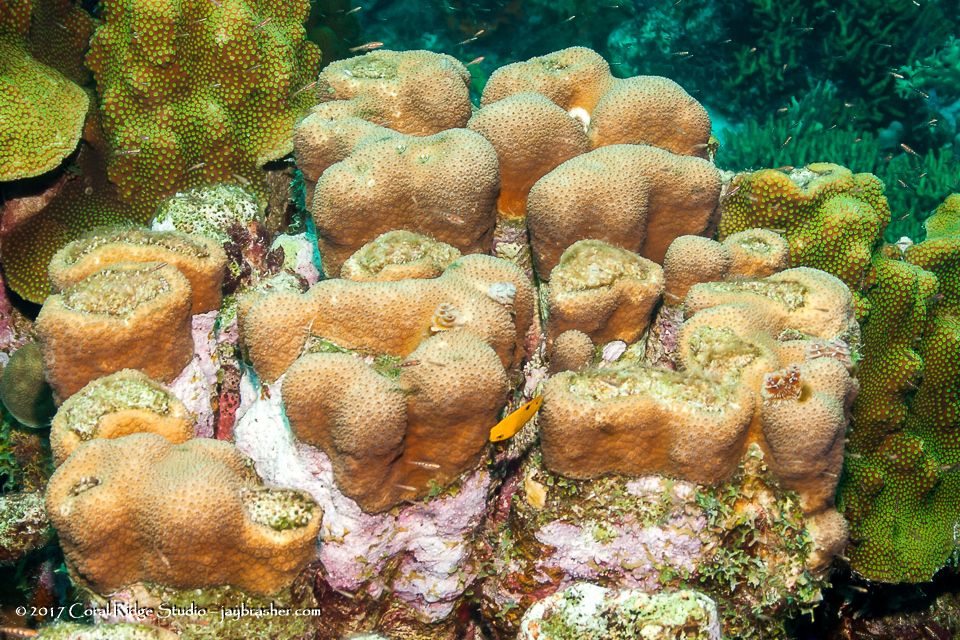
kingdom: Animalia
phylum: Cnidaria
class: Anthozoa
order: Scleractinia
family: Merulinidae
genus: Orbicella
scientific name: Orbicella annularis
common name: Boulder star coral
